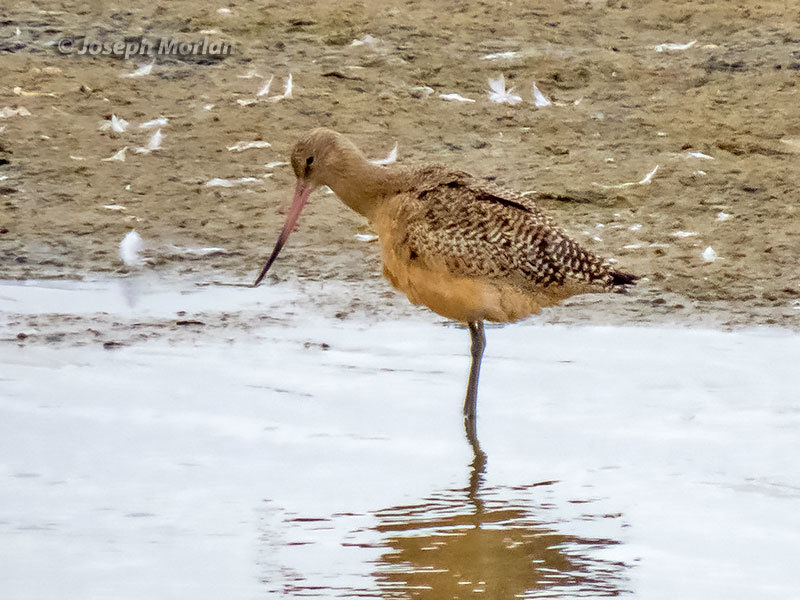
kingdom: Animalia
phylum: Chordata
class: Aves
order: Charadriiformes
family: Scolopacidae
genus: Limosa
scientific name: Limosa fedoa
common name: Marbled godwit
